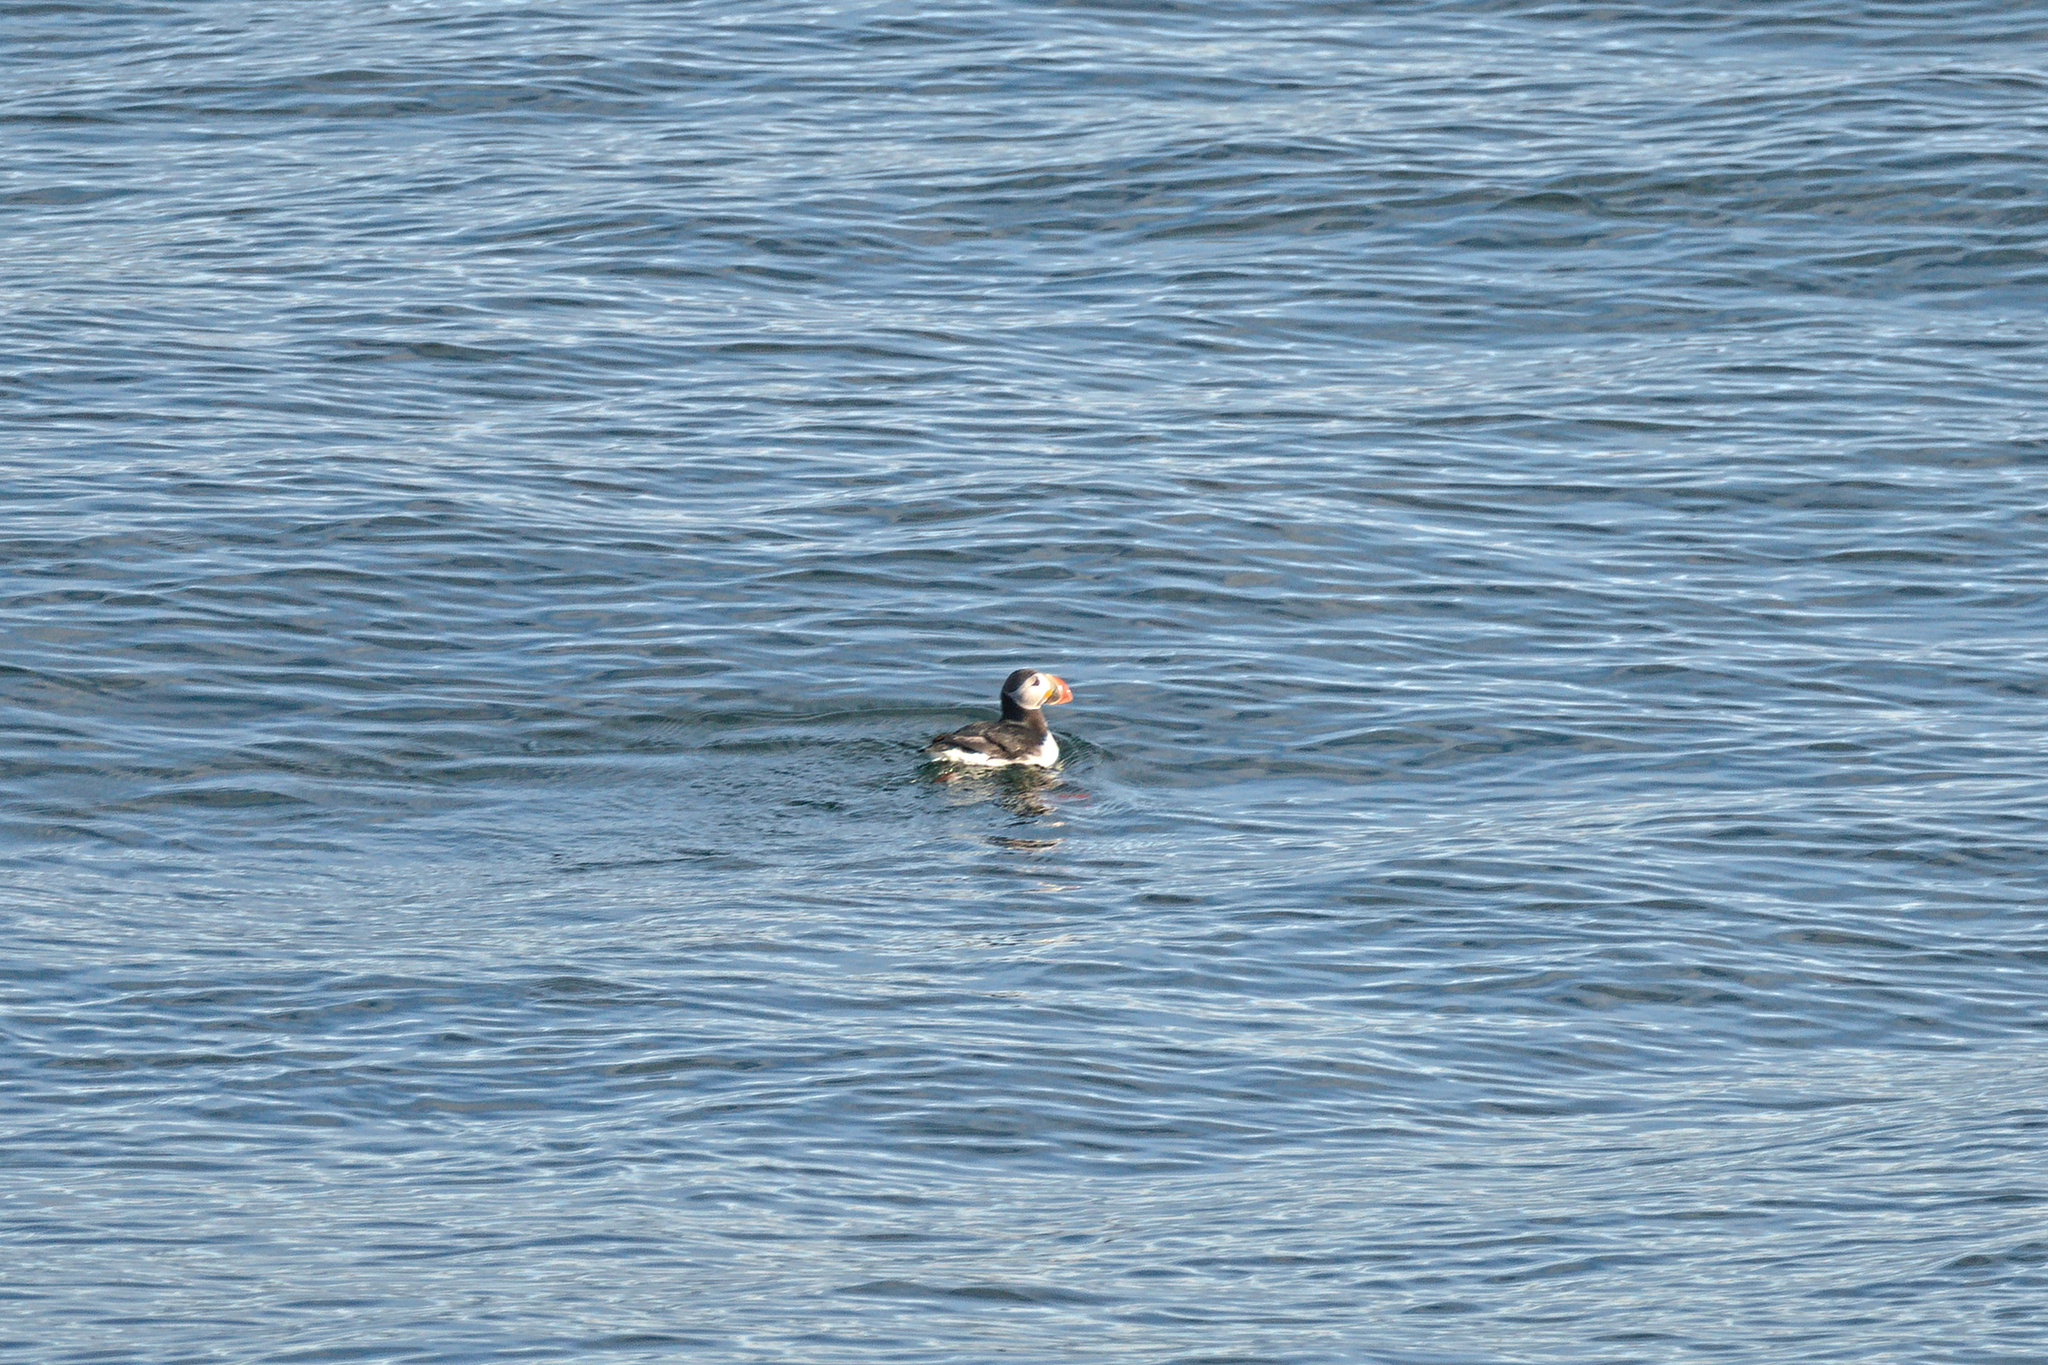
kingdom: Animalia
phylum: Chordata
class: Aves
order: Charadriiformes
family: Alcidae
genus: Fratercula
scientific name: Fratercula arctica
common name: Atlantic puffin
